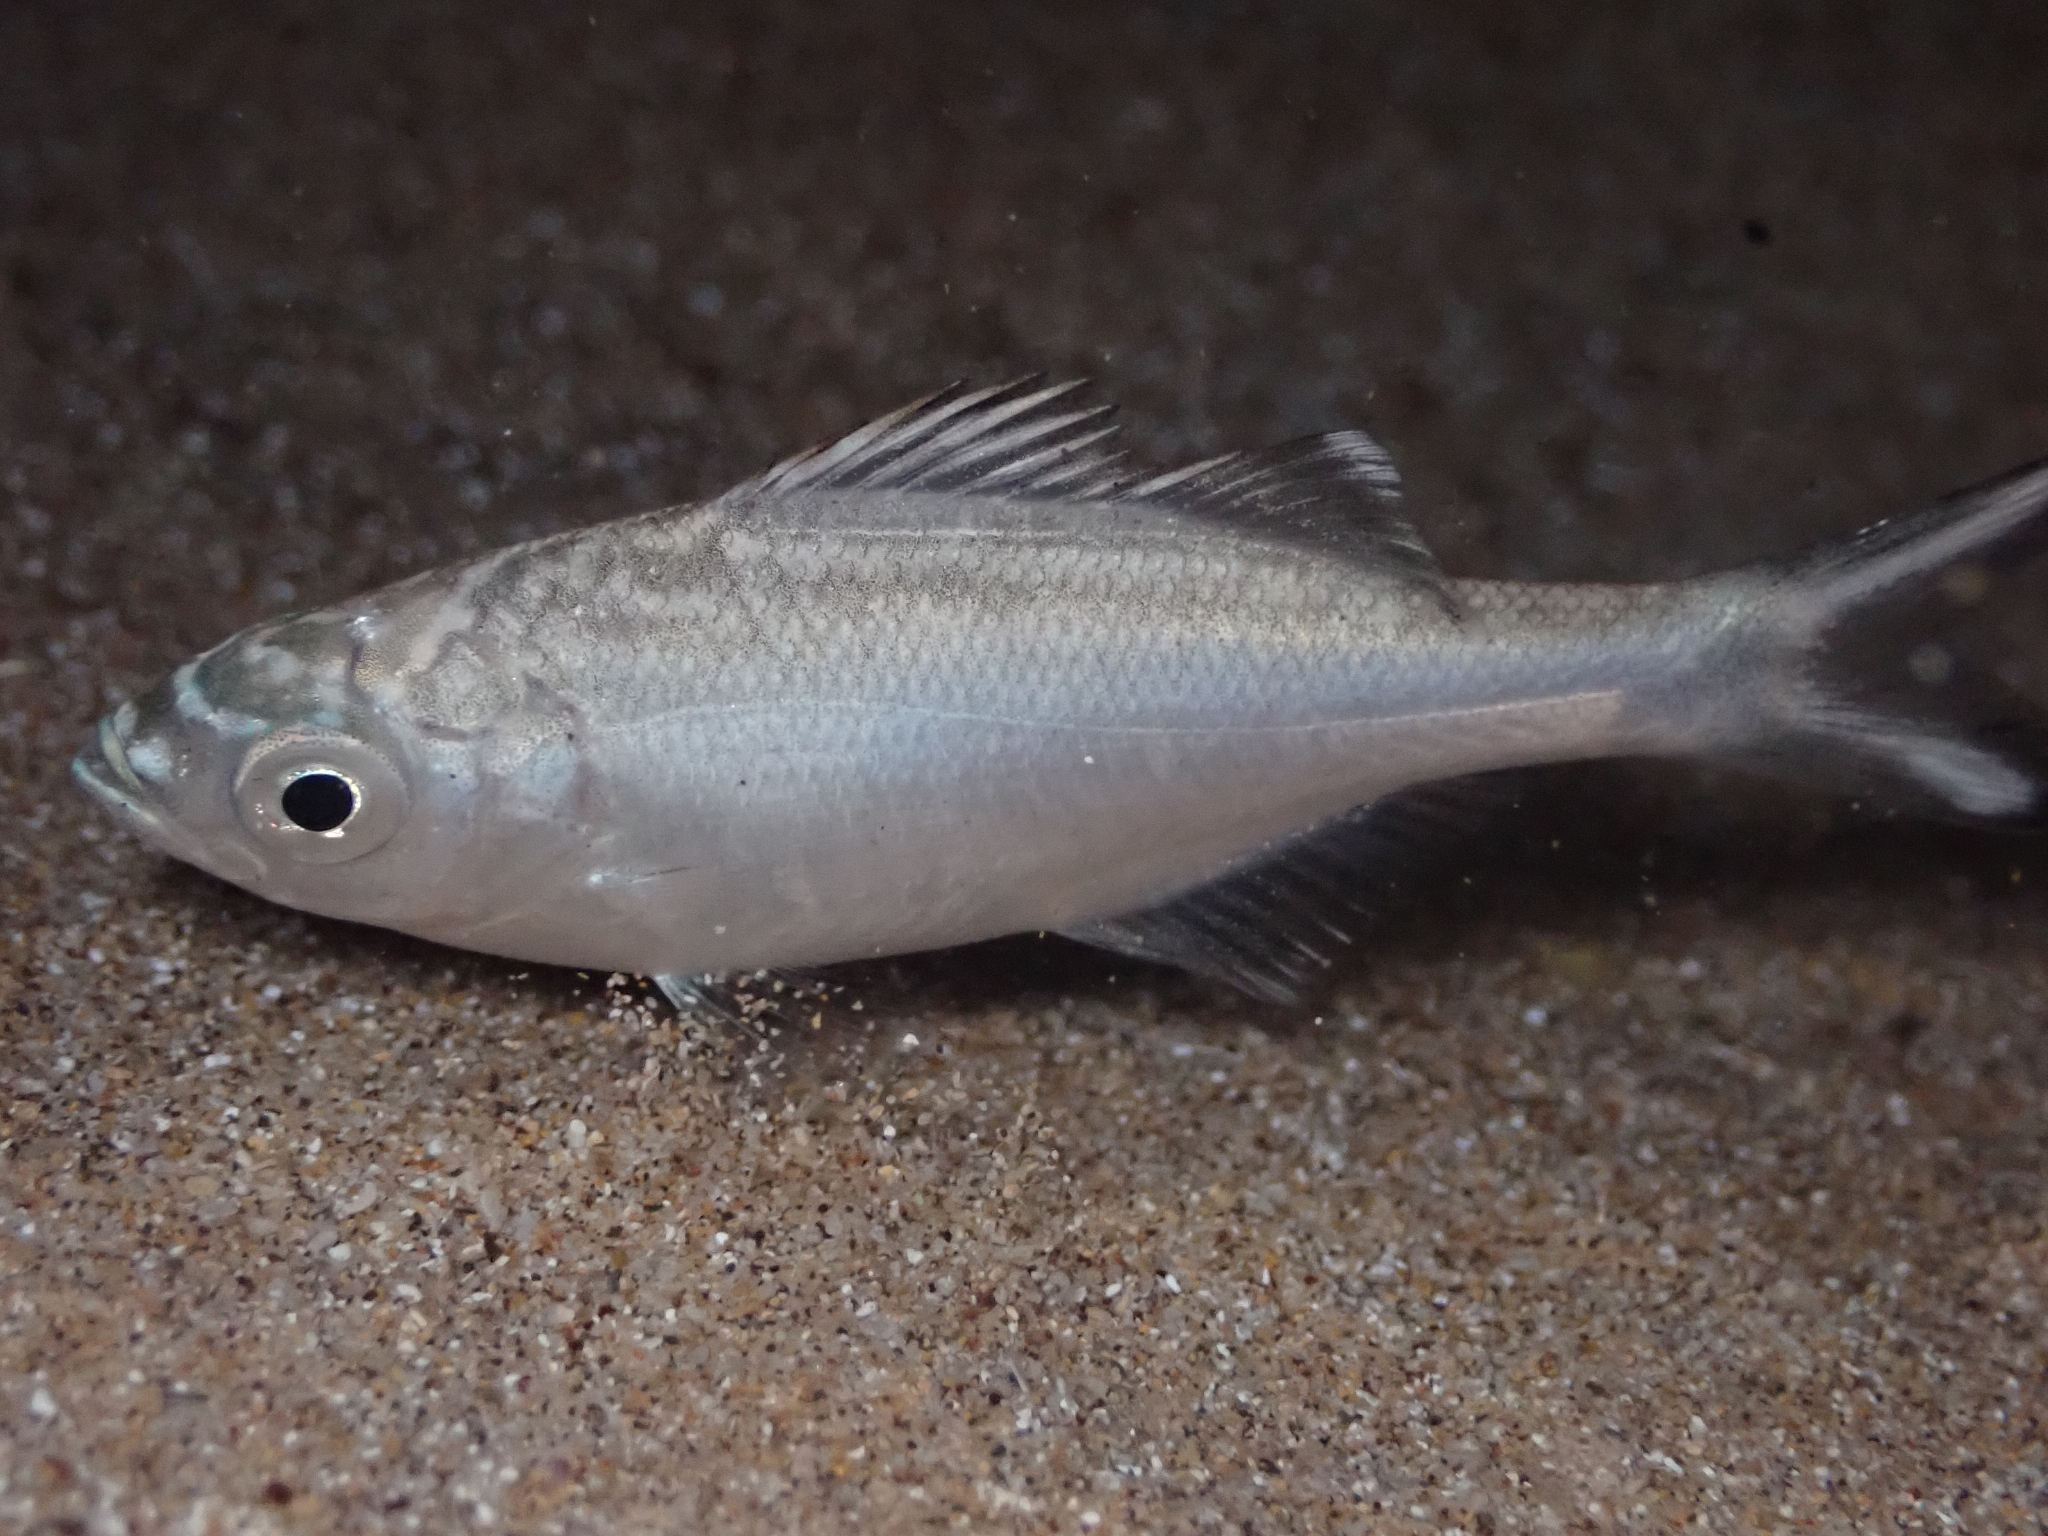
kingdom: Animalia
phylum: Chordata
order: Perciformes
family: Kuhliidae
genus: Kuhlia
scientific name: Kuhlia sandvicensis
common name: Hawaiian flagtail
